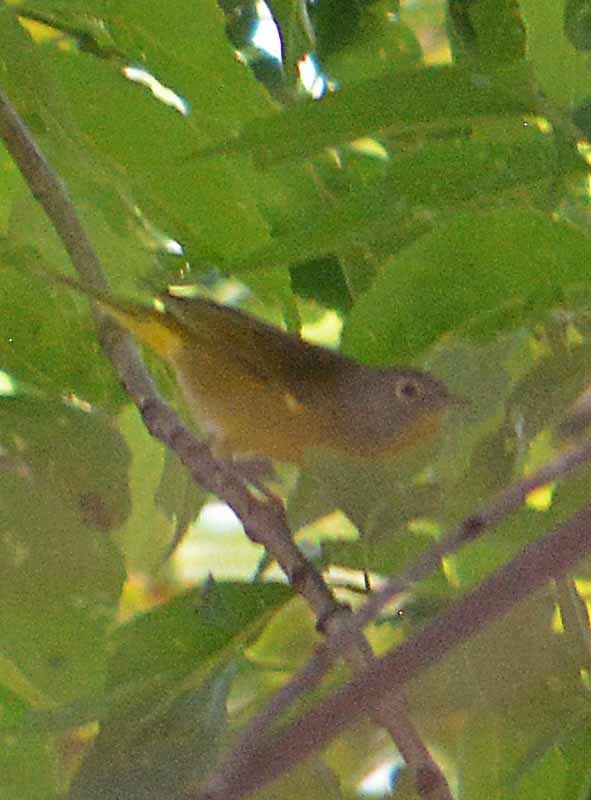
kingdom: Animalia
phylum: Chordata
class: Aves
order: Passeriformes
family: Parulidae
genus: Leiothlypis
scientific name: Leiothlypis ruficapilla
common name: Nashville warbler
